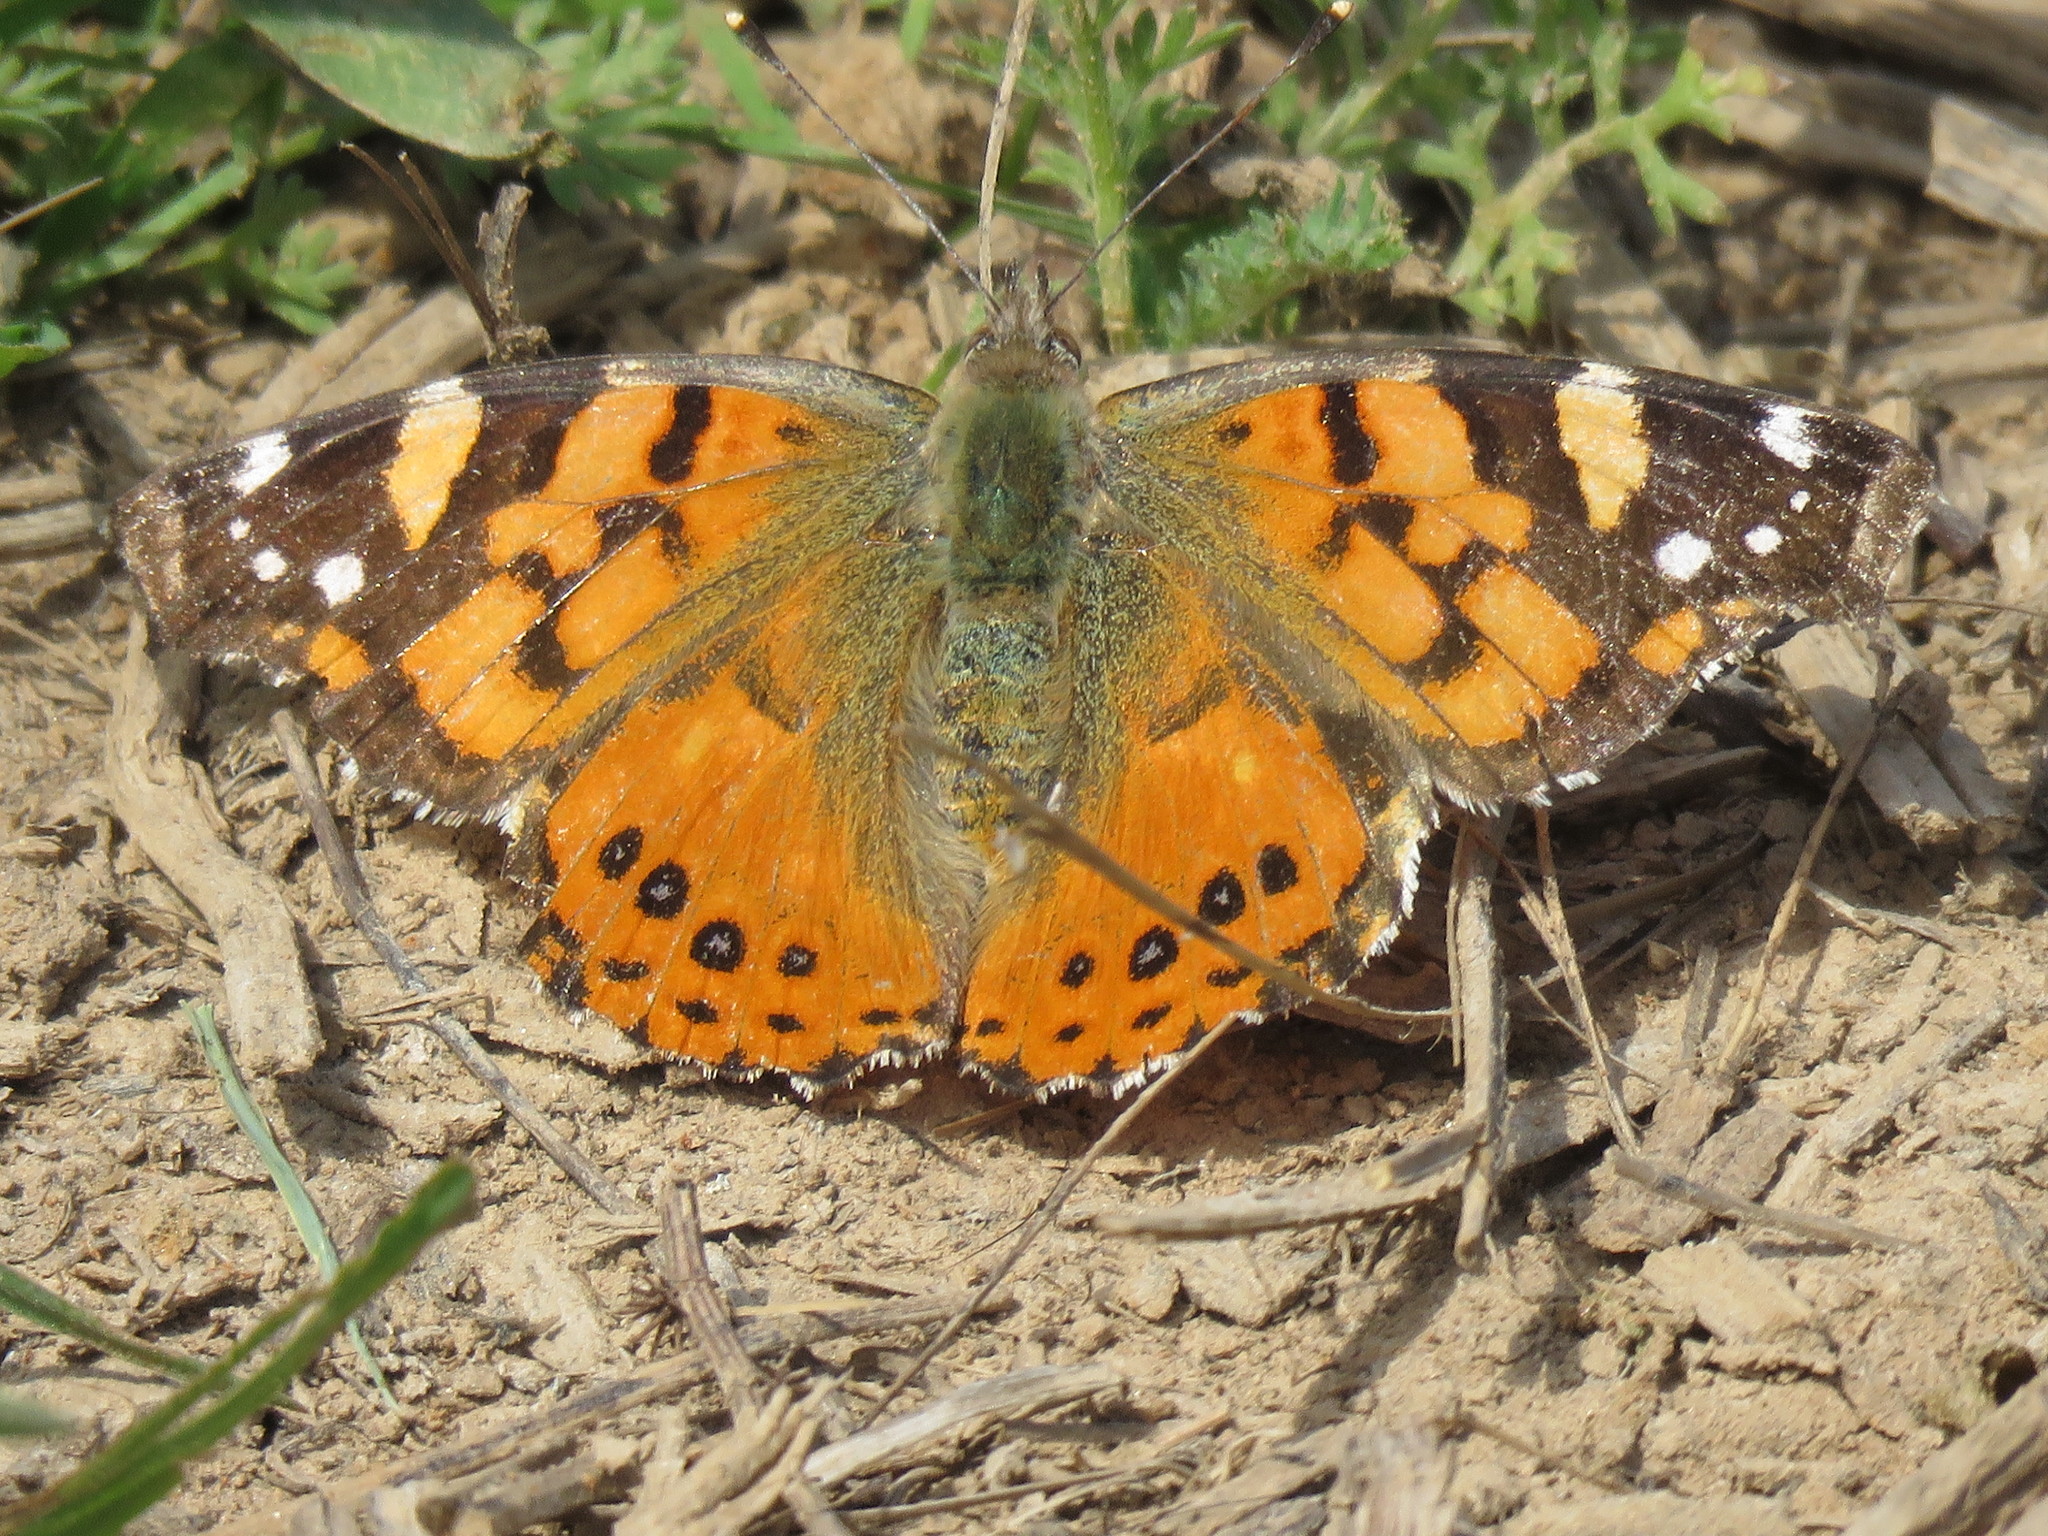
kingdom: Animalia
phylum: Arthropoda
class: Insecta
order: Lepidoptera
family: Nymphalidae
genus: Vanessa
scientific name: Vanessa carye
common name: Subtropical lady
